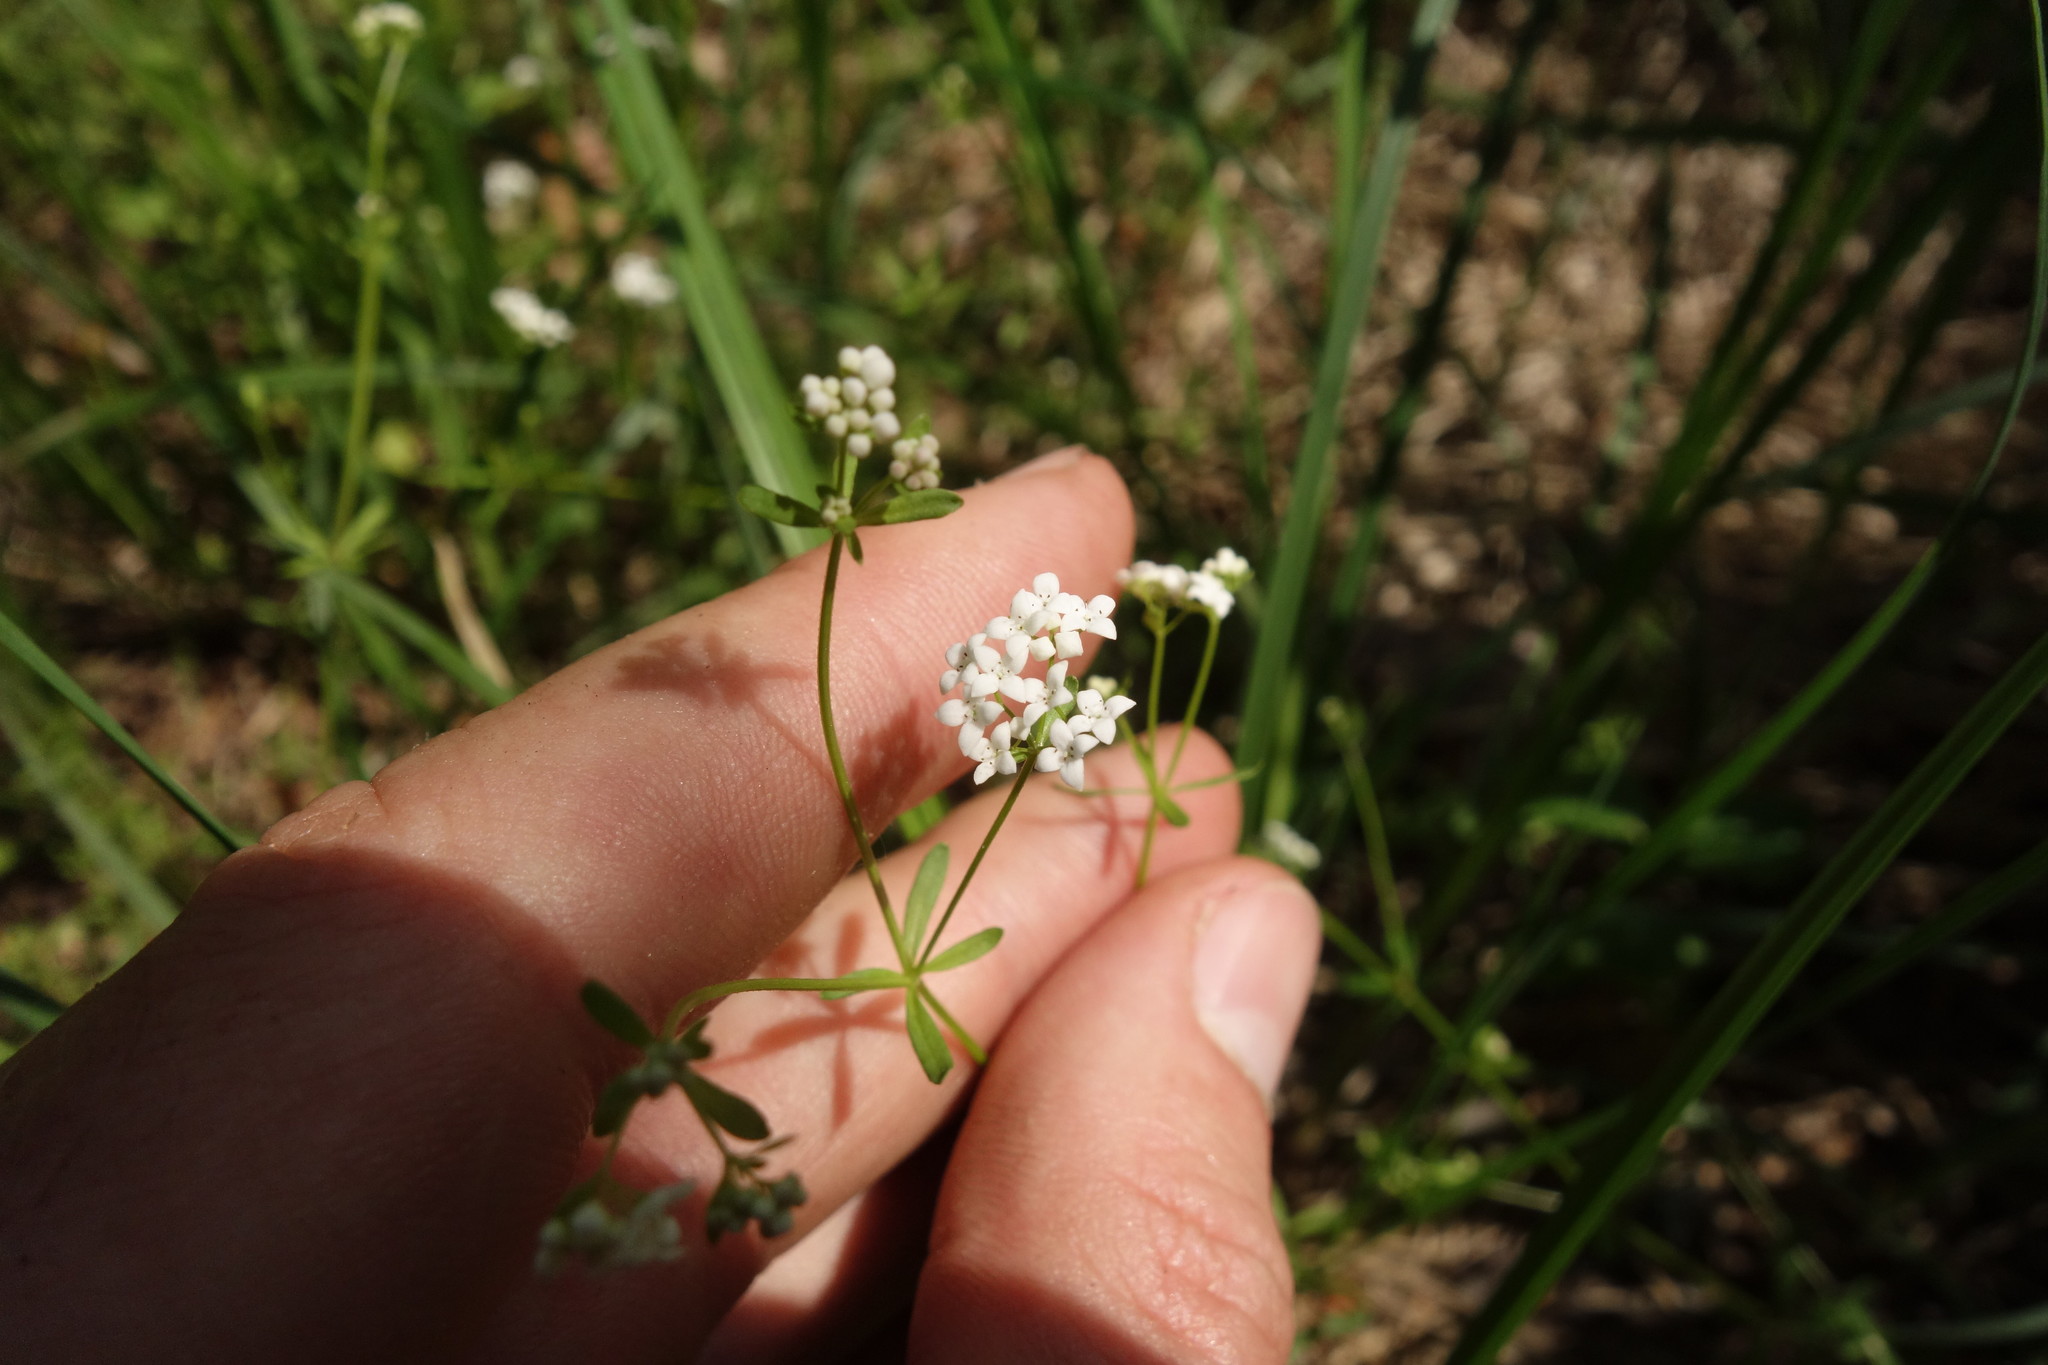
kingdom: Plantae
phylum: Tracheophyta
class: Magnoliopsida
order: Gentianales
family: Rubiaceae
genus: Galium
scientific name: Galium palustre
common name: Common marsh-bedstraw
